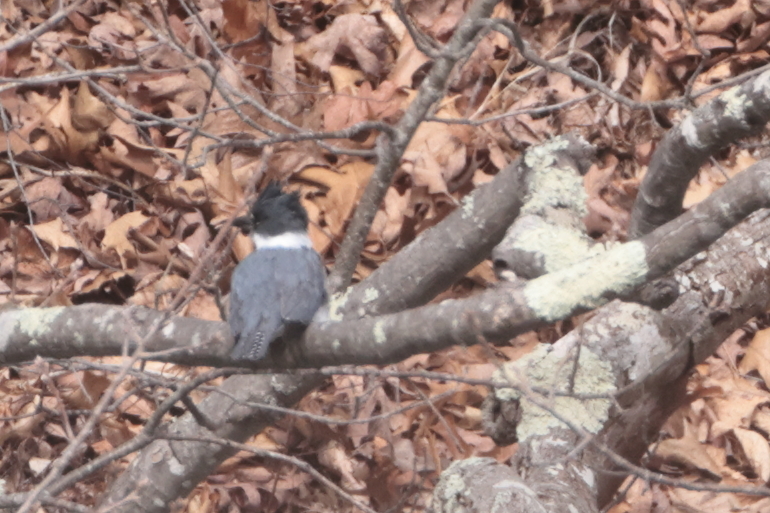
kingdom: Animalia
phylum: Chordata
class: Aves
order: Coraciiformes
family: Alcedinidae
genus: Megaceryle
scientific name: Megaceryle alcyon
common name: Belted kingfisher
